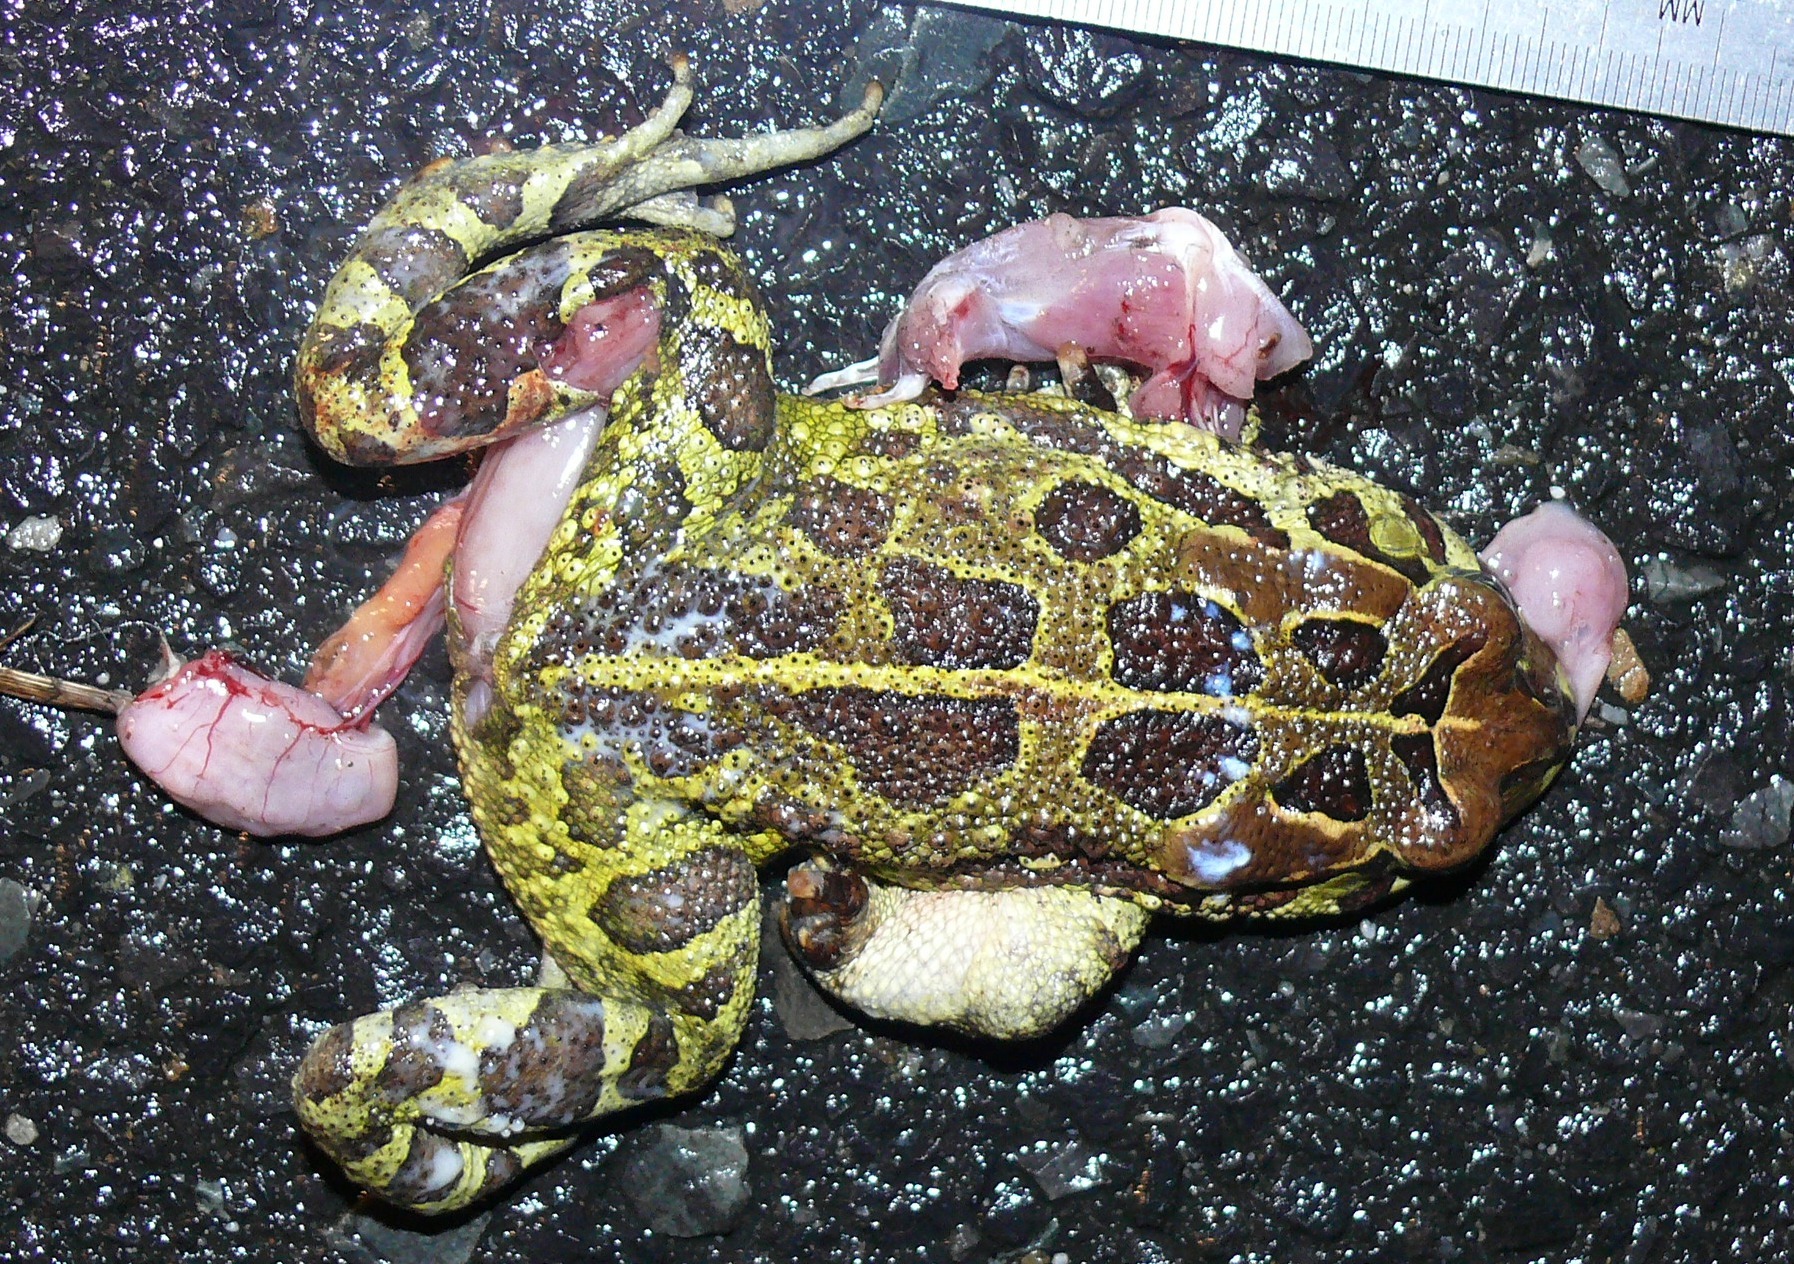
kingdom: Animalia
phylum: Chordata
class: Amphibia
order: Anura
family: Bufonidae
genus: Sclerophrys
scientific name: Sclerophrys pantherina
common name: Panther toad
